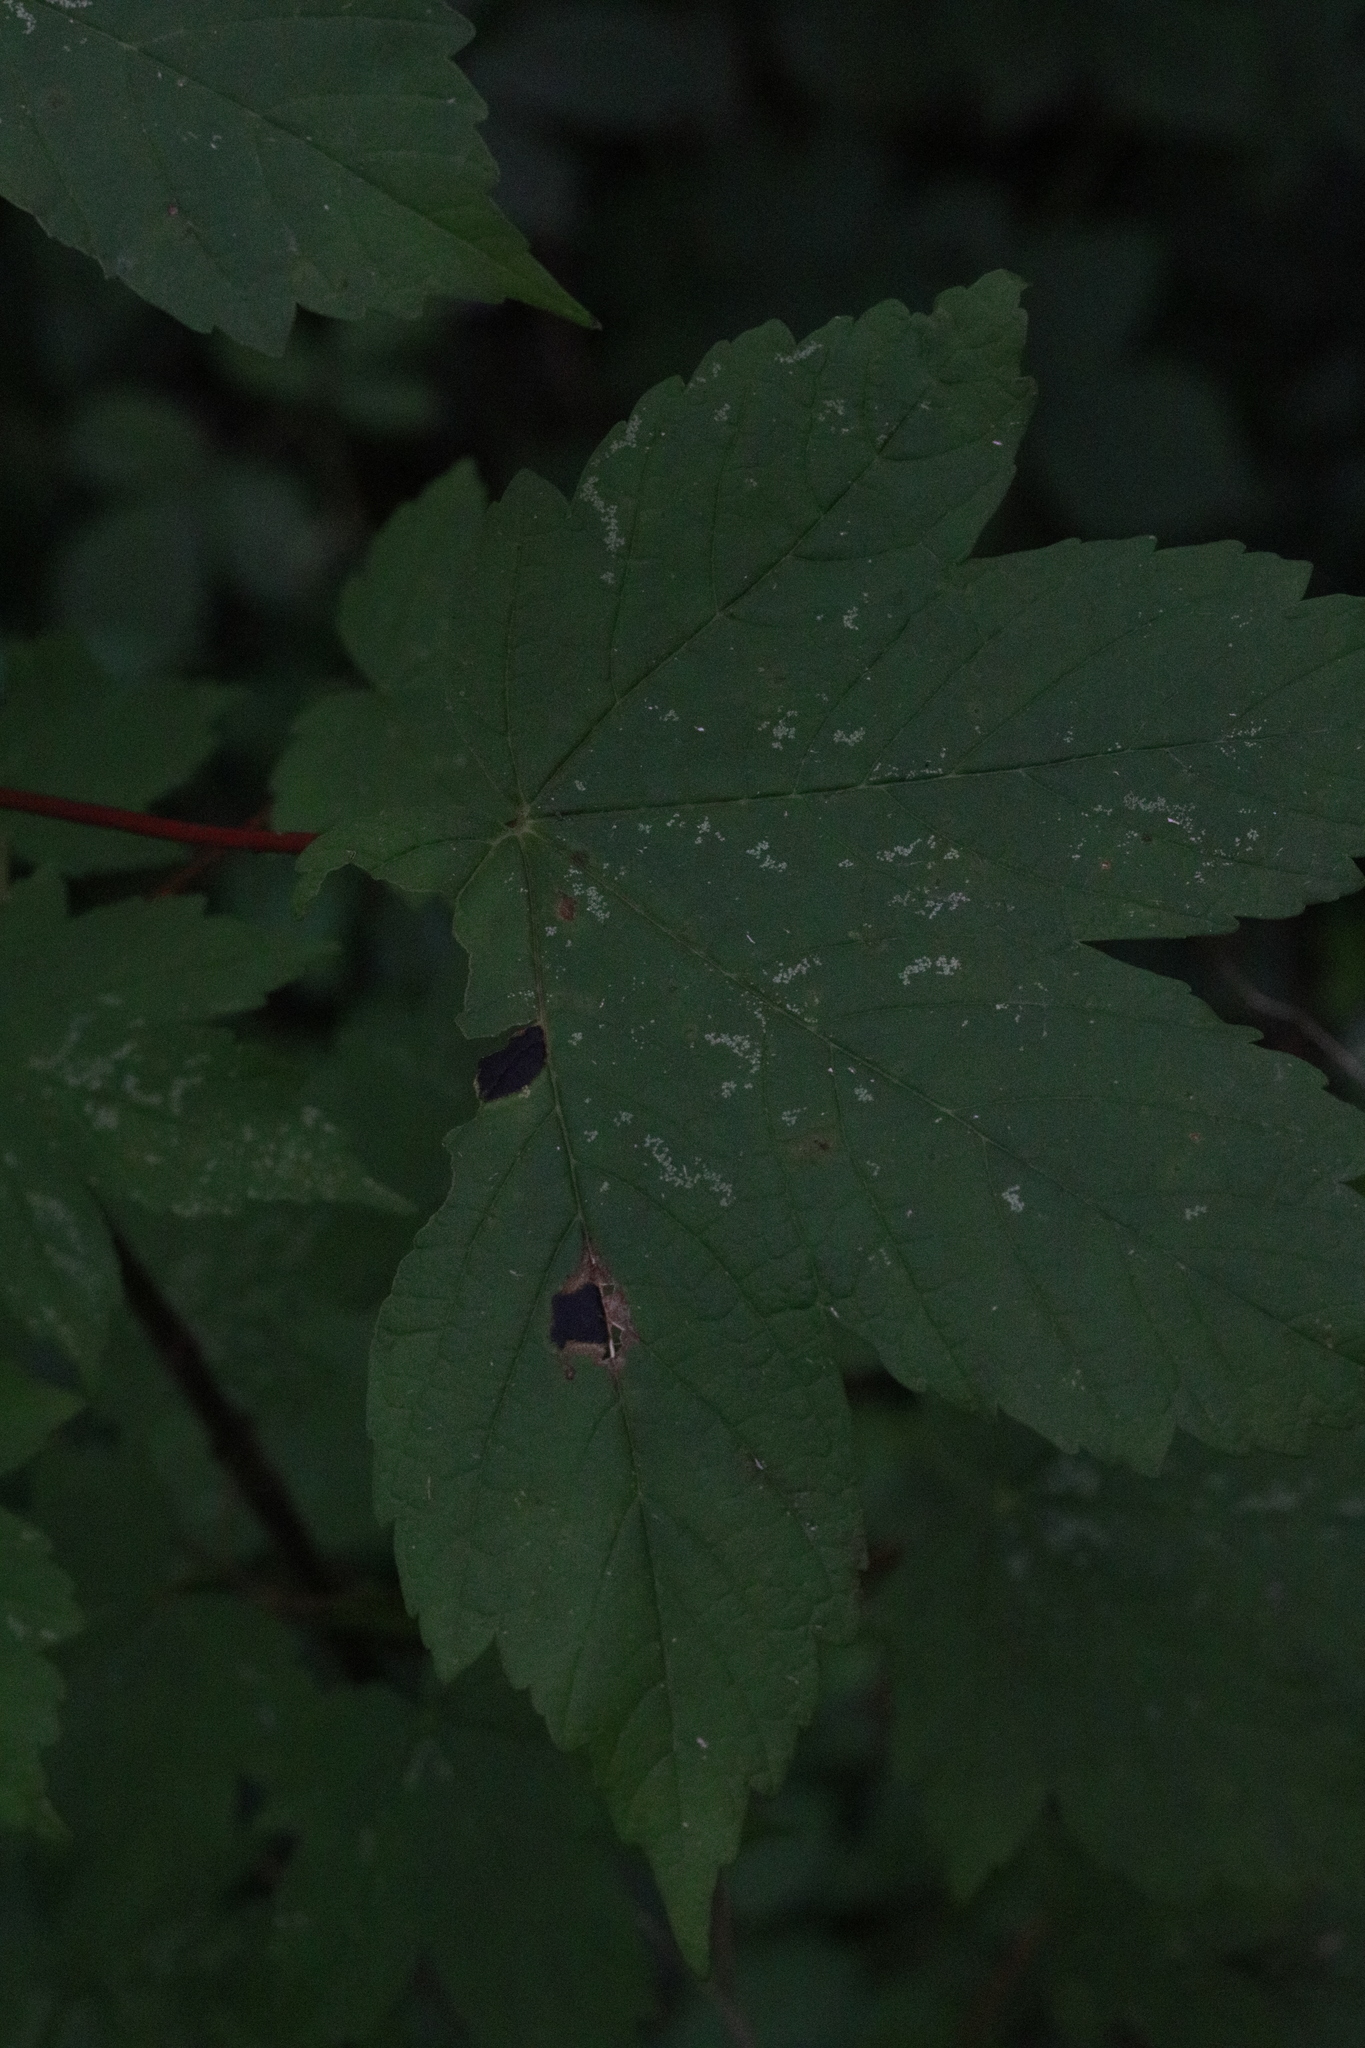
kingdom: Fungi
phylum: Ascomycota
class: Leotiomycetes
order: Rhytismatales
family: Rhytismataceae
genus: Rhytisma
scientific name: Rhytisma acerinum
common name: European tar spot
